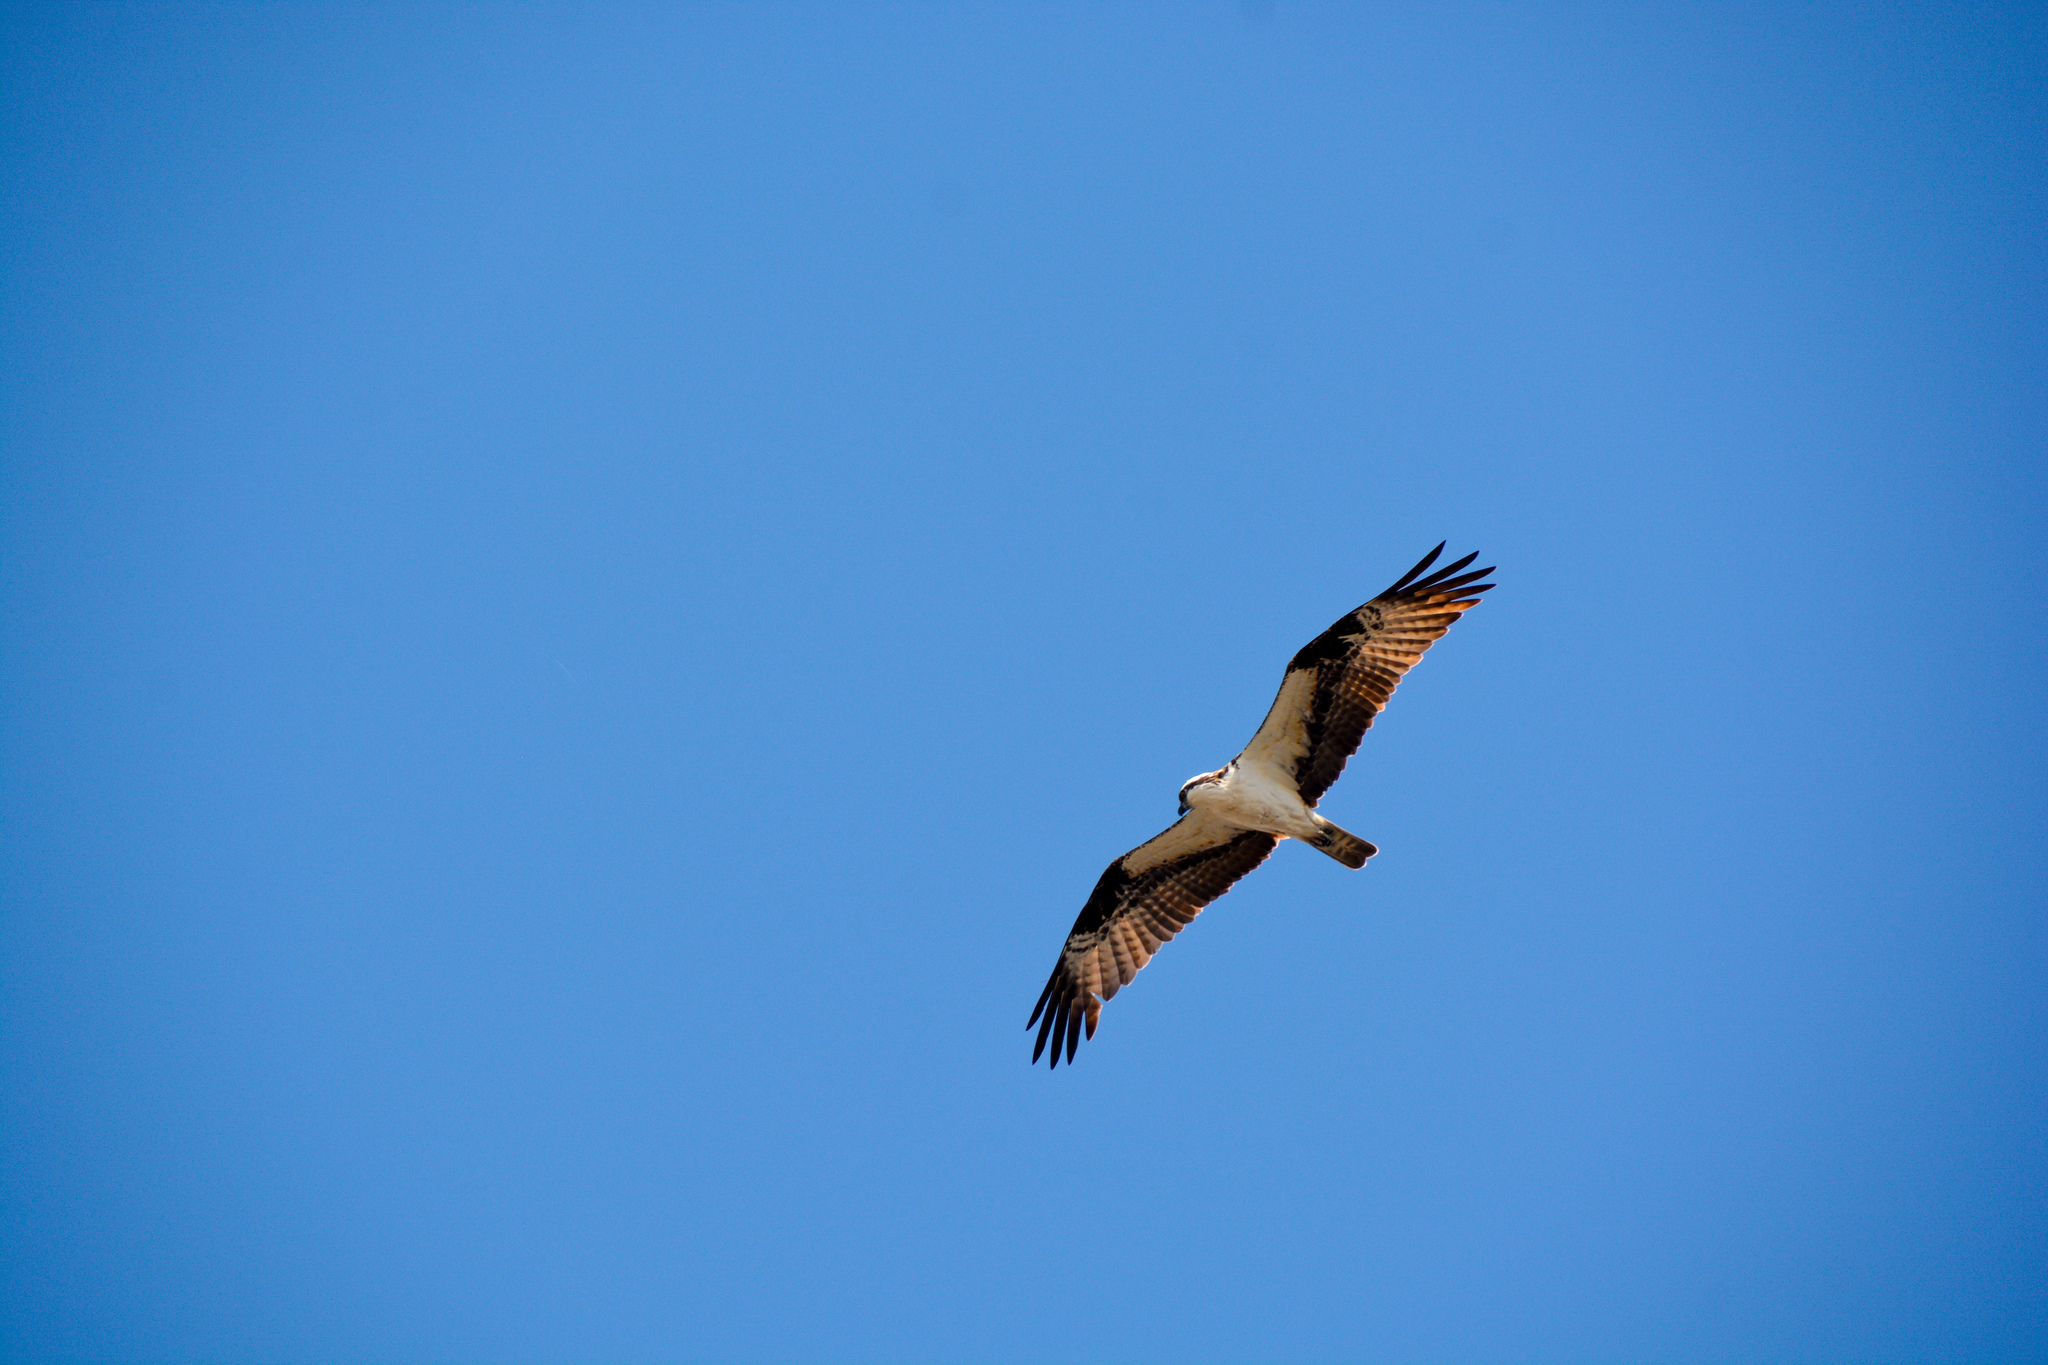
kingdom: Animalia
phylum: Chordata
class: Aves
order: Accipitriformes
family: Pandionidae
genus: Pandion
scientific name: Pandion haliaetus
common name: Osprey
